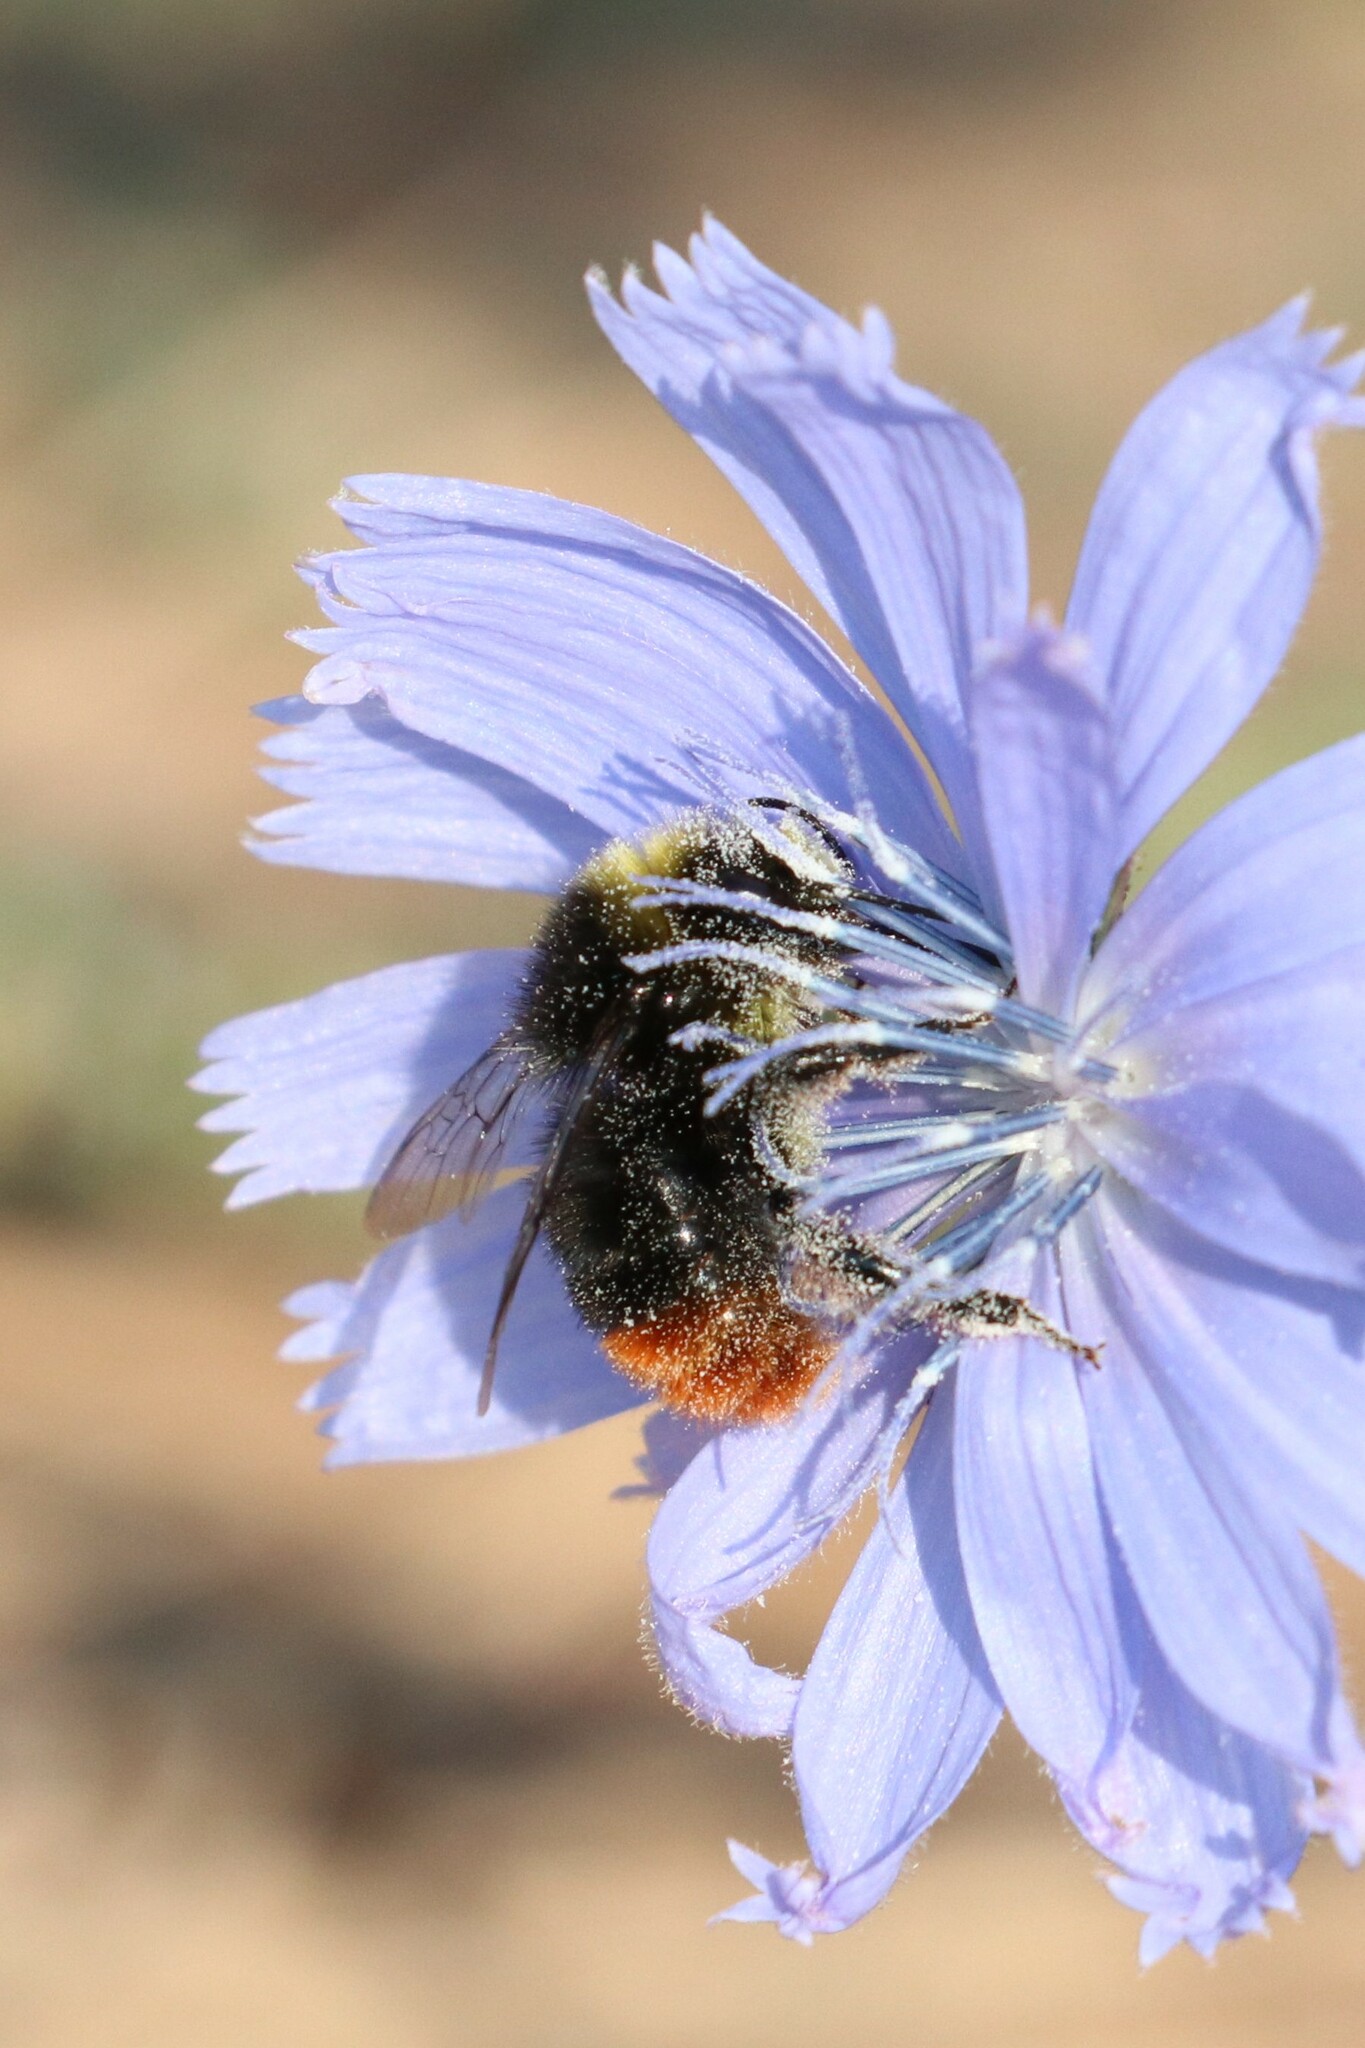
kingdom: Animalia
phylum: Arthropoda
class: Insecta
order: Hymenoptera
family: Apidae
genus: Bombus
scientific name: Bombus lapidarius
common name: Large red-tailed humble-bee
